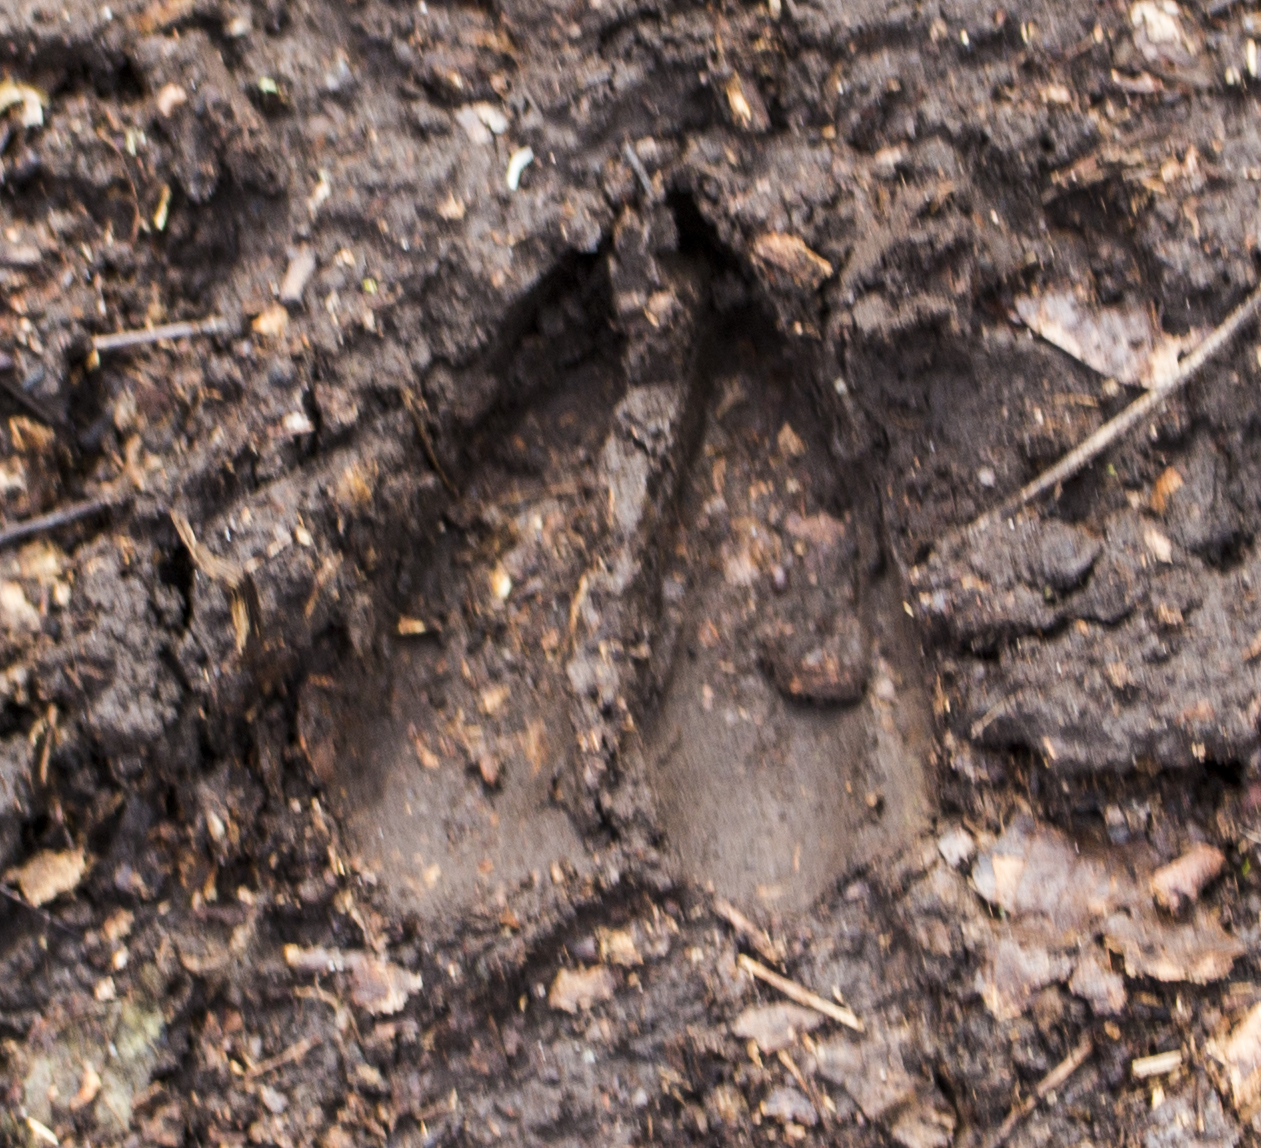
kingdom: Animalia
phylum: Chordata
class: Mammalia
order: Artiodactyla
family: Cervidae
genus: Odocoileus
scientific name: Odocoileus virginianus
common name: White-tailed deer
